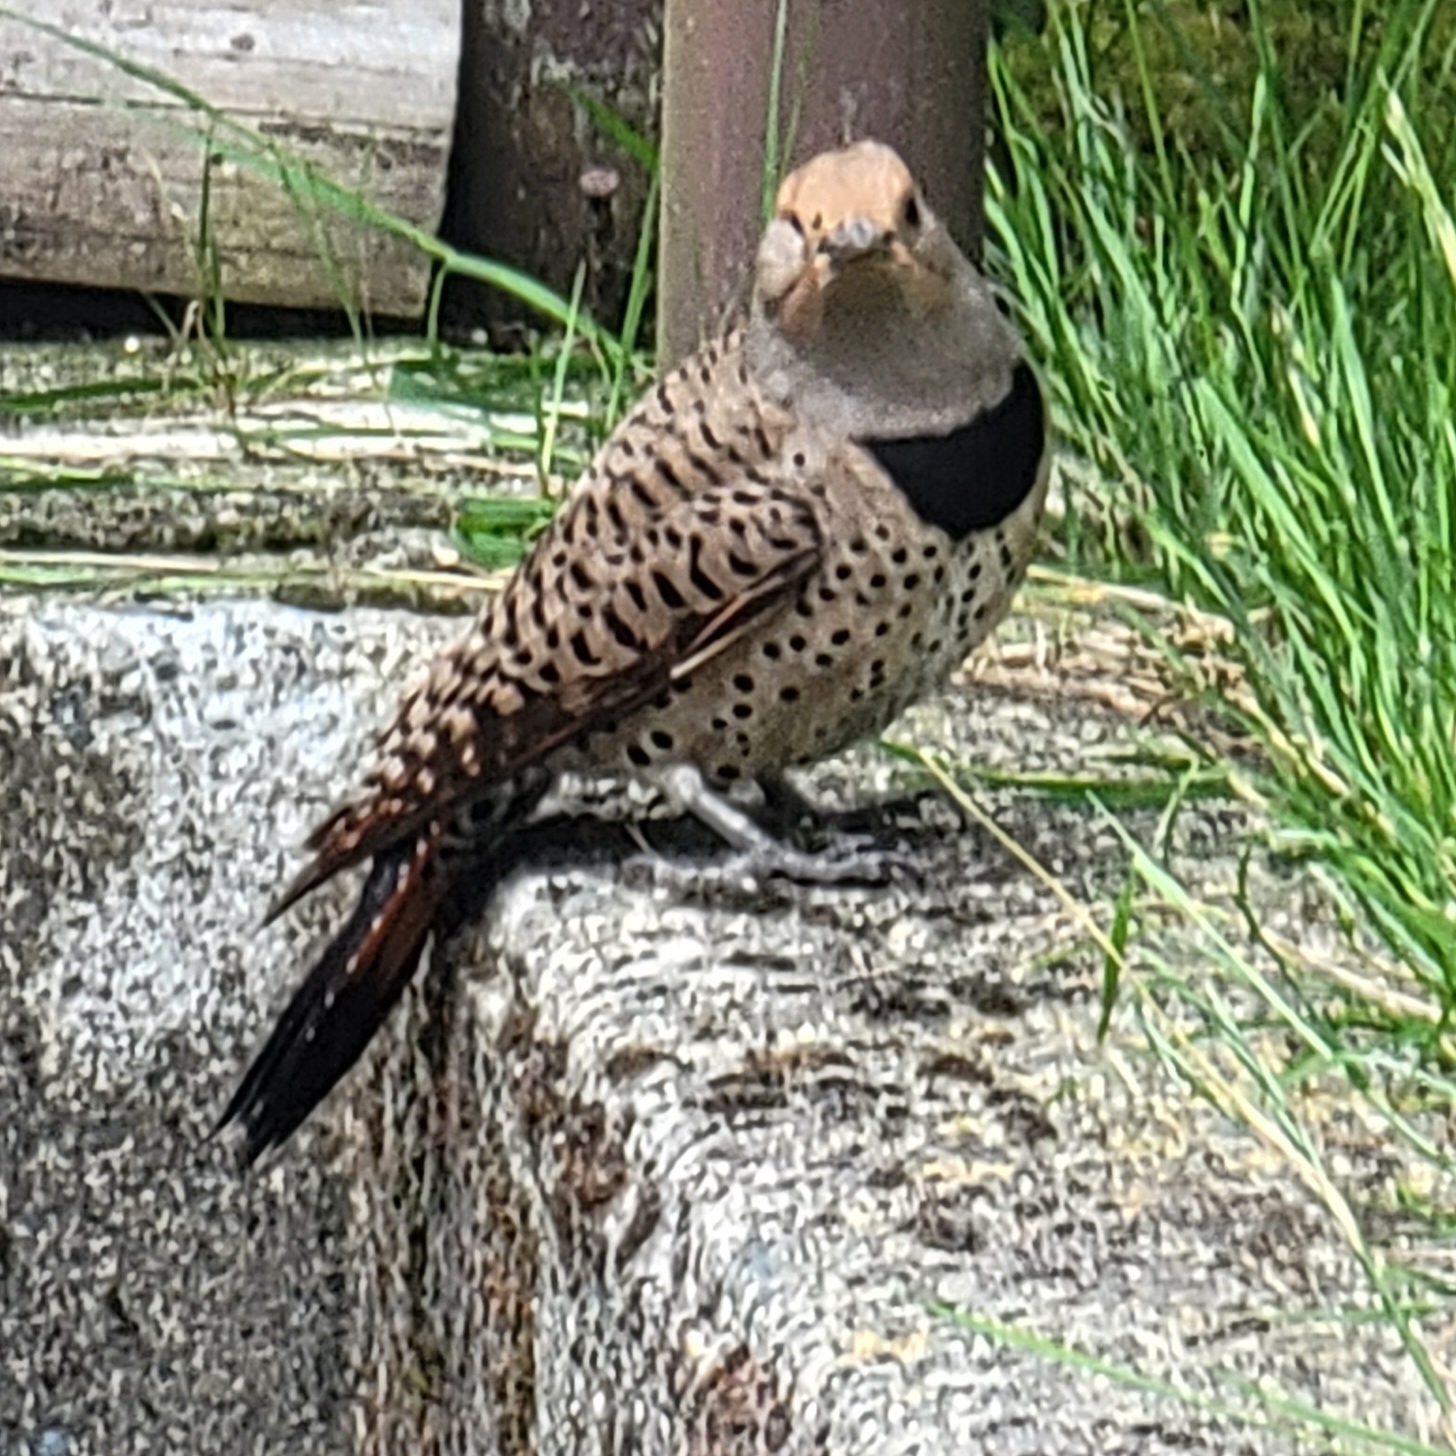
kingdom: Animalia
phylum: Chordata
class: Aves
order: Piciformes
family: Picidae
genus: Colaptes
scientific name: Colaptes auratus
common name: Northern flicker
